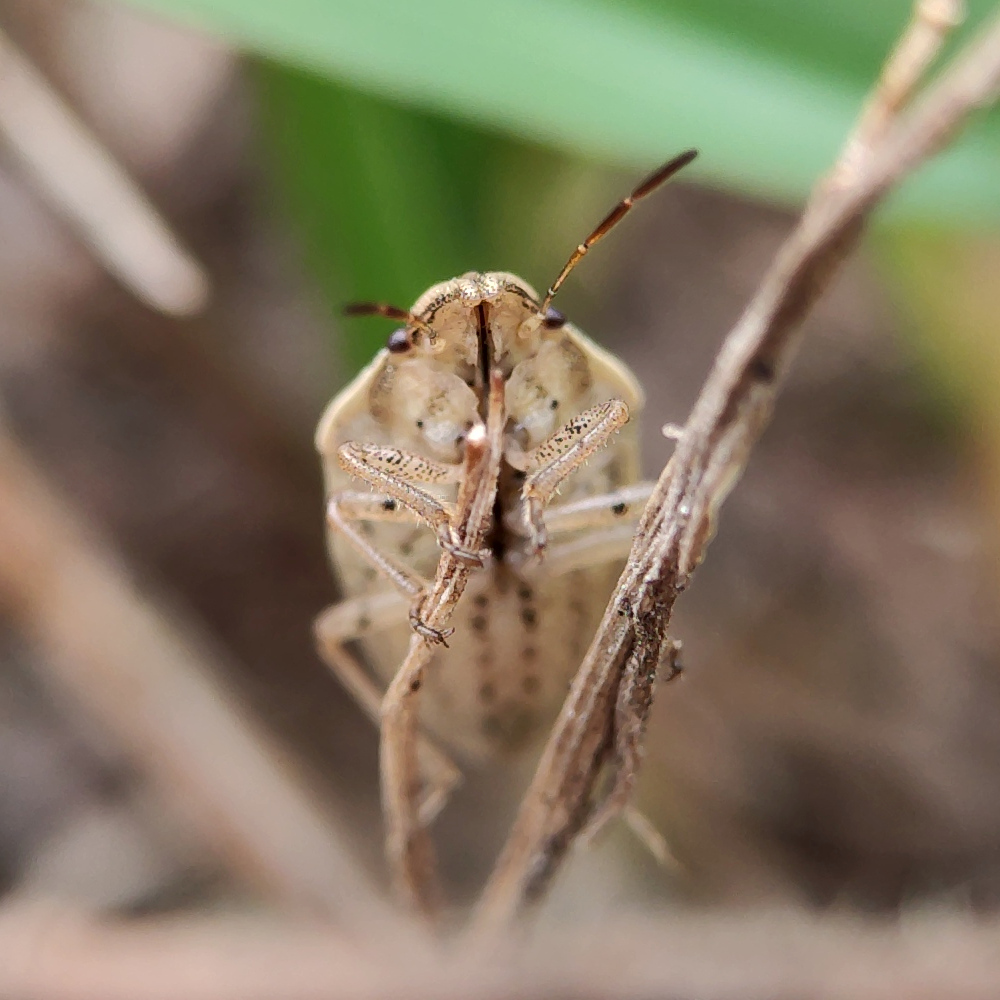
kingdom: Animalia
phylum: Arthropoda
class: Insecta
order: Hemiptera
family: Pentatomidae
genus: Aelia
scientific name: Aelia acuminata
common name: Bishop's mitre
